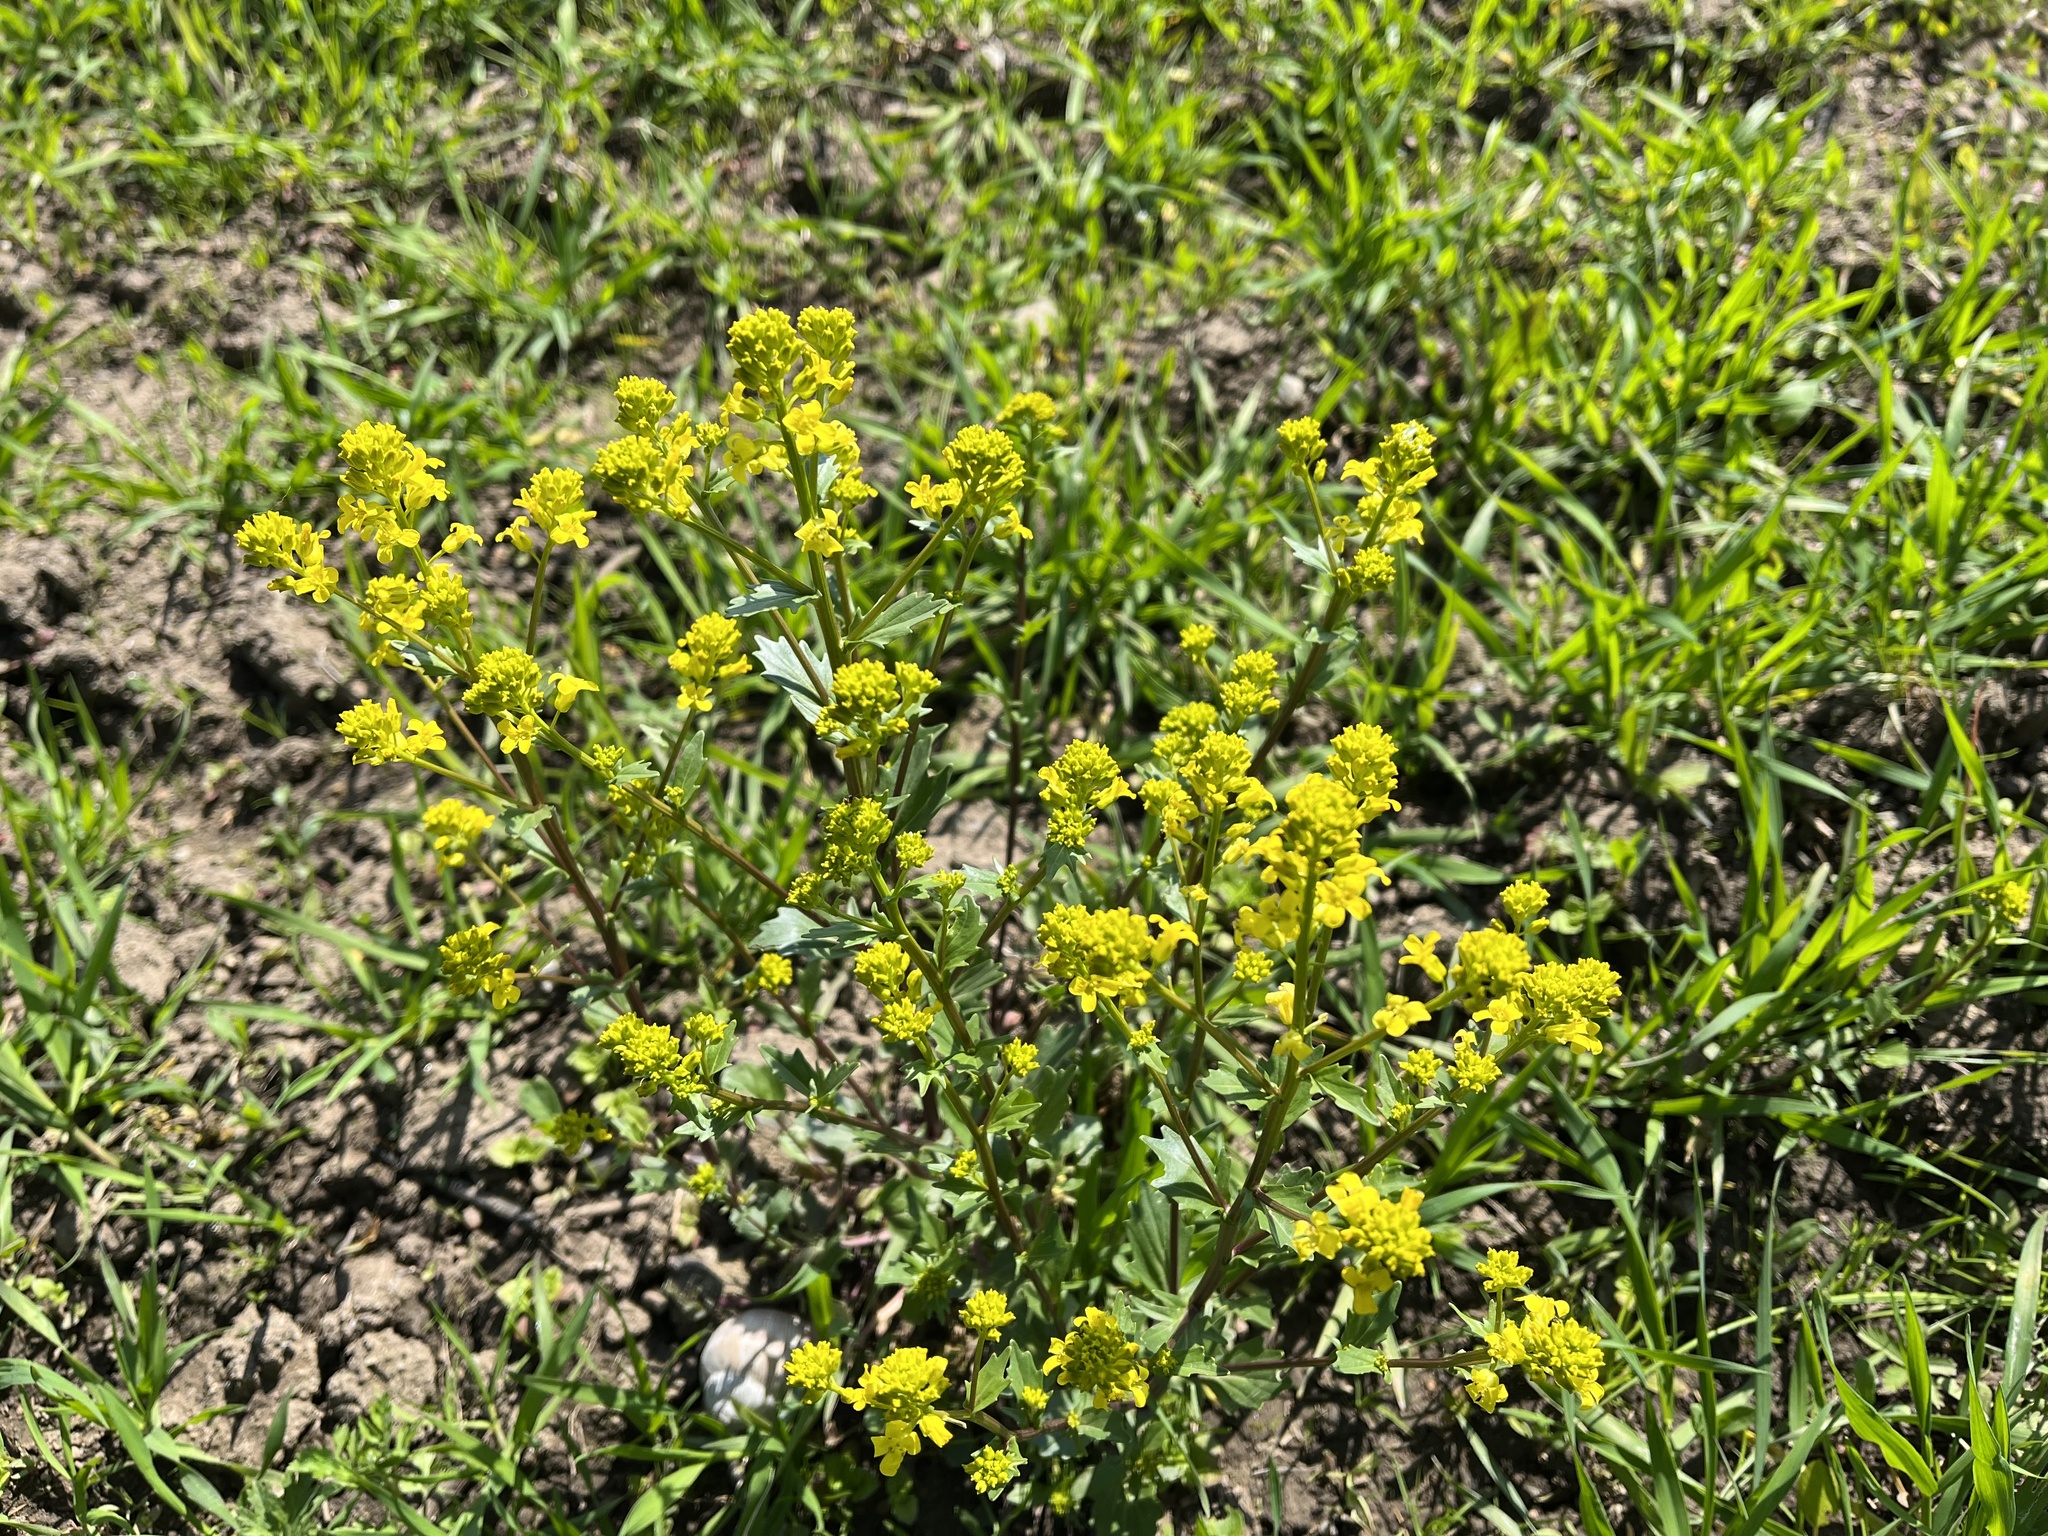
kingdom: Plantae
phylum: Tracheophyta
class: Magnoliopsida
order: Brassicales
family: Brassicaceae
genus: Barbarea
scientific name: Barbarea vulgaris
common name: Cressy-greens
